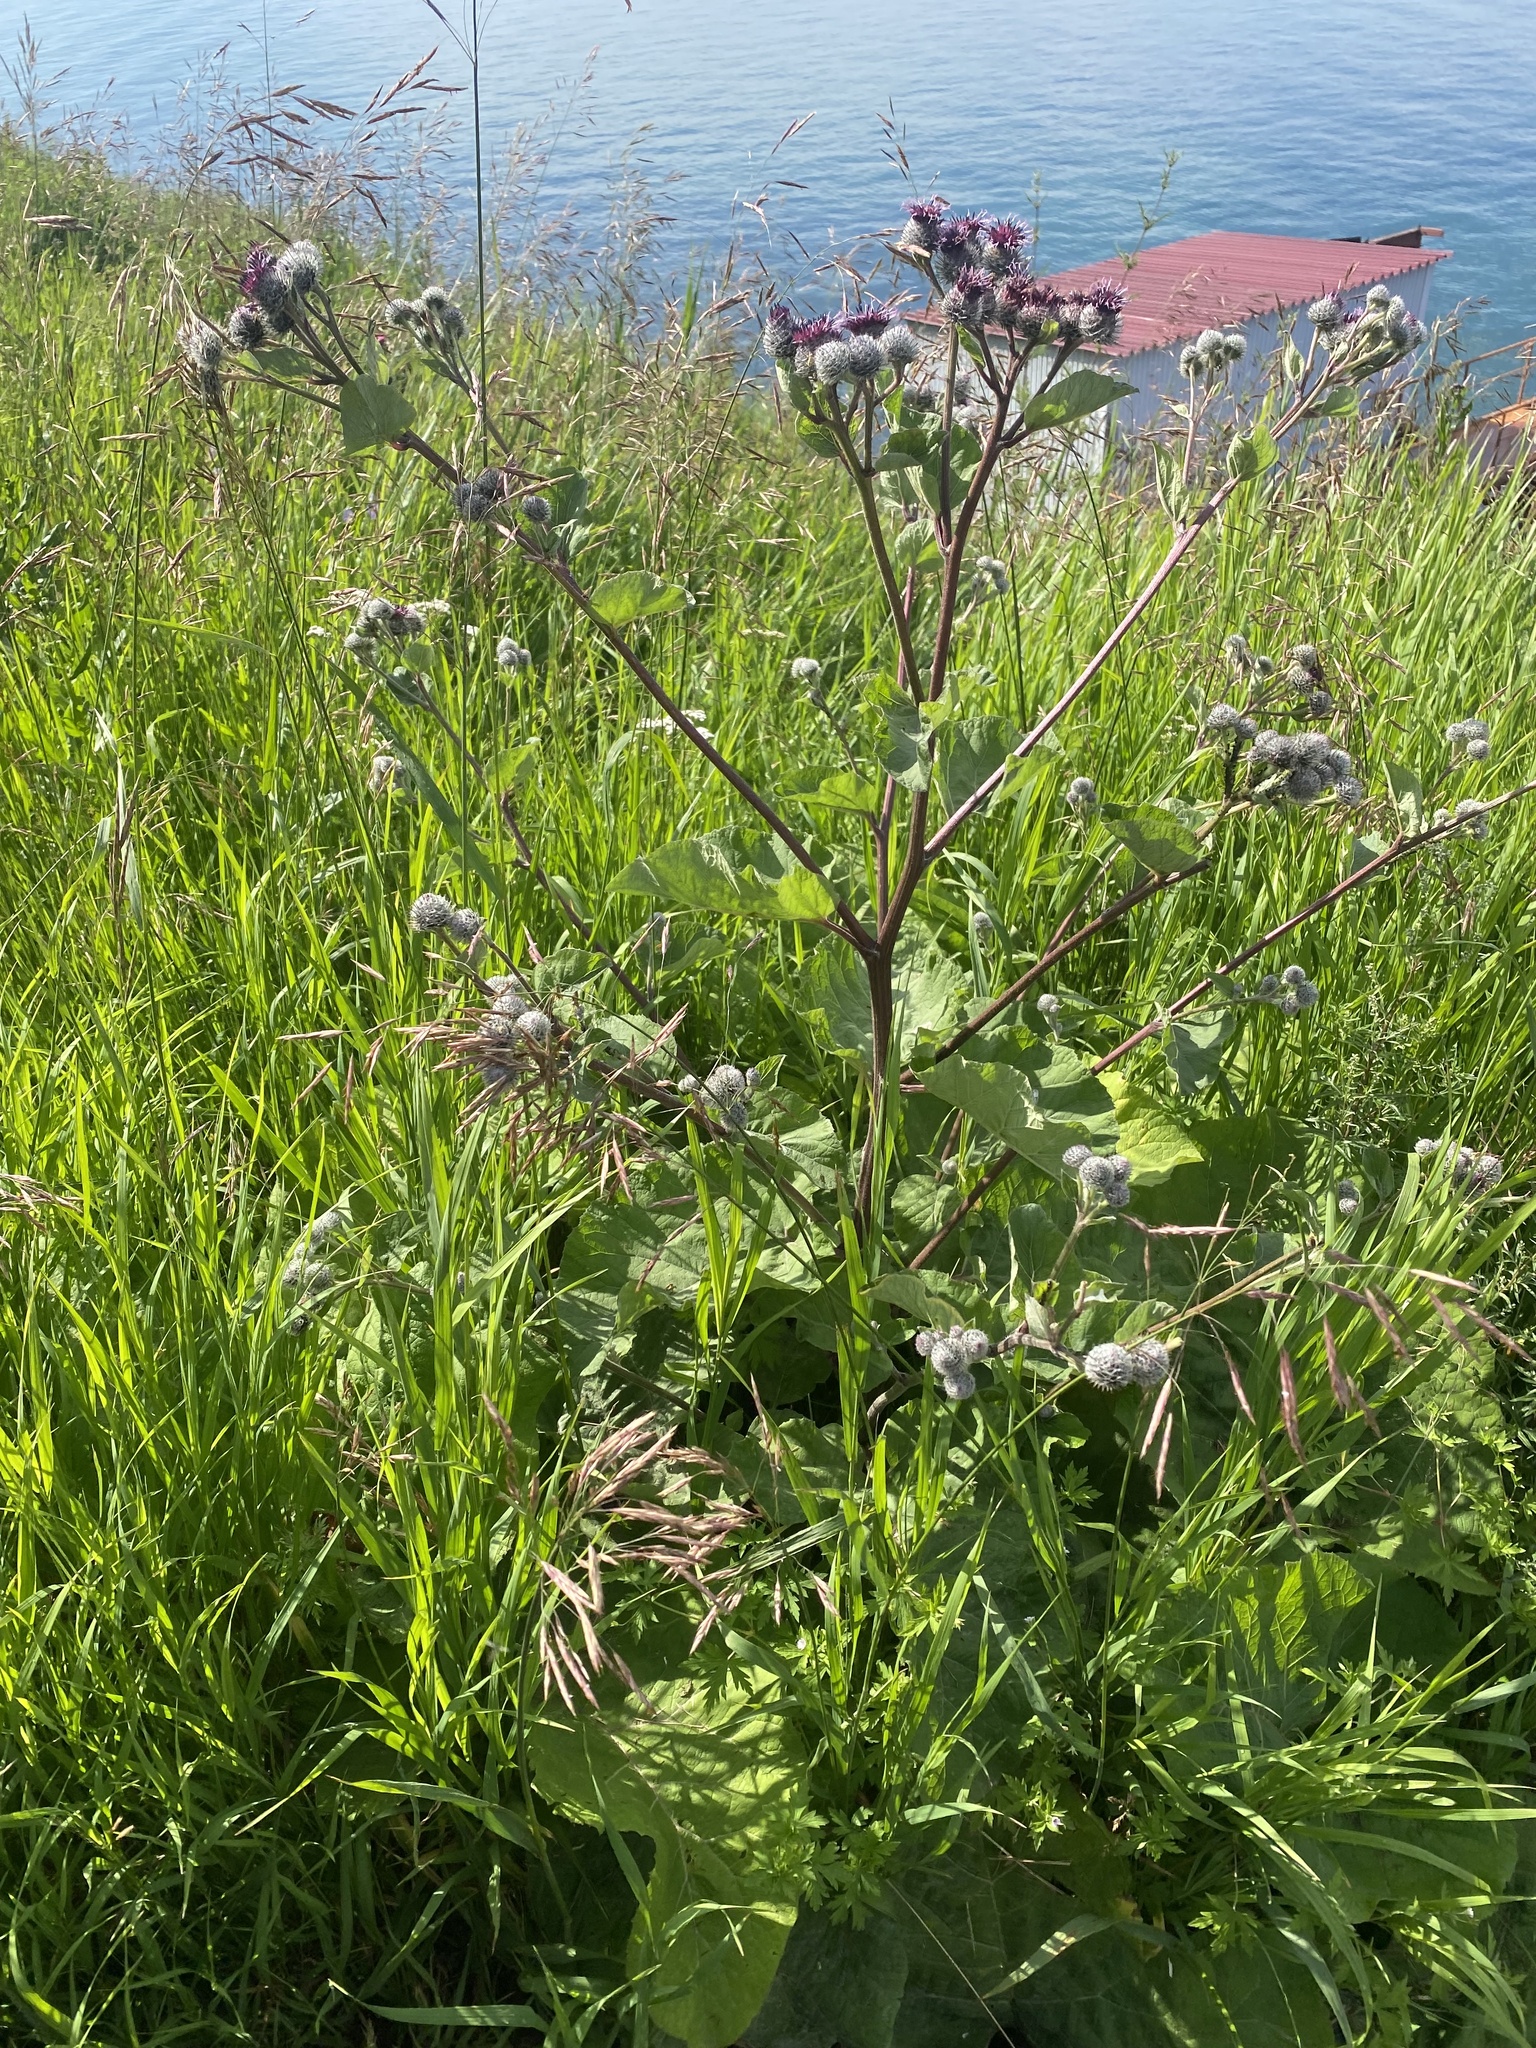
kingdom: Plantae
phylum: Tracheophyta
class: Magnoliopsida
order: Asterales
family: Asteraceae
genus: Arctium
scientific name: Arctium tomentosum
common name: Woolly burdock
